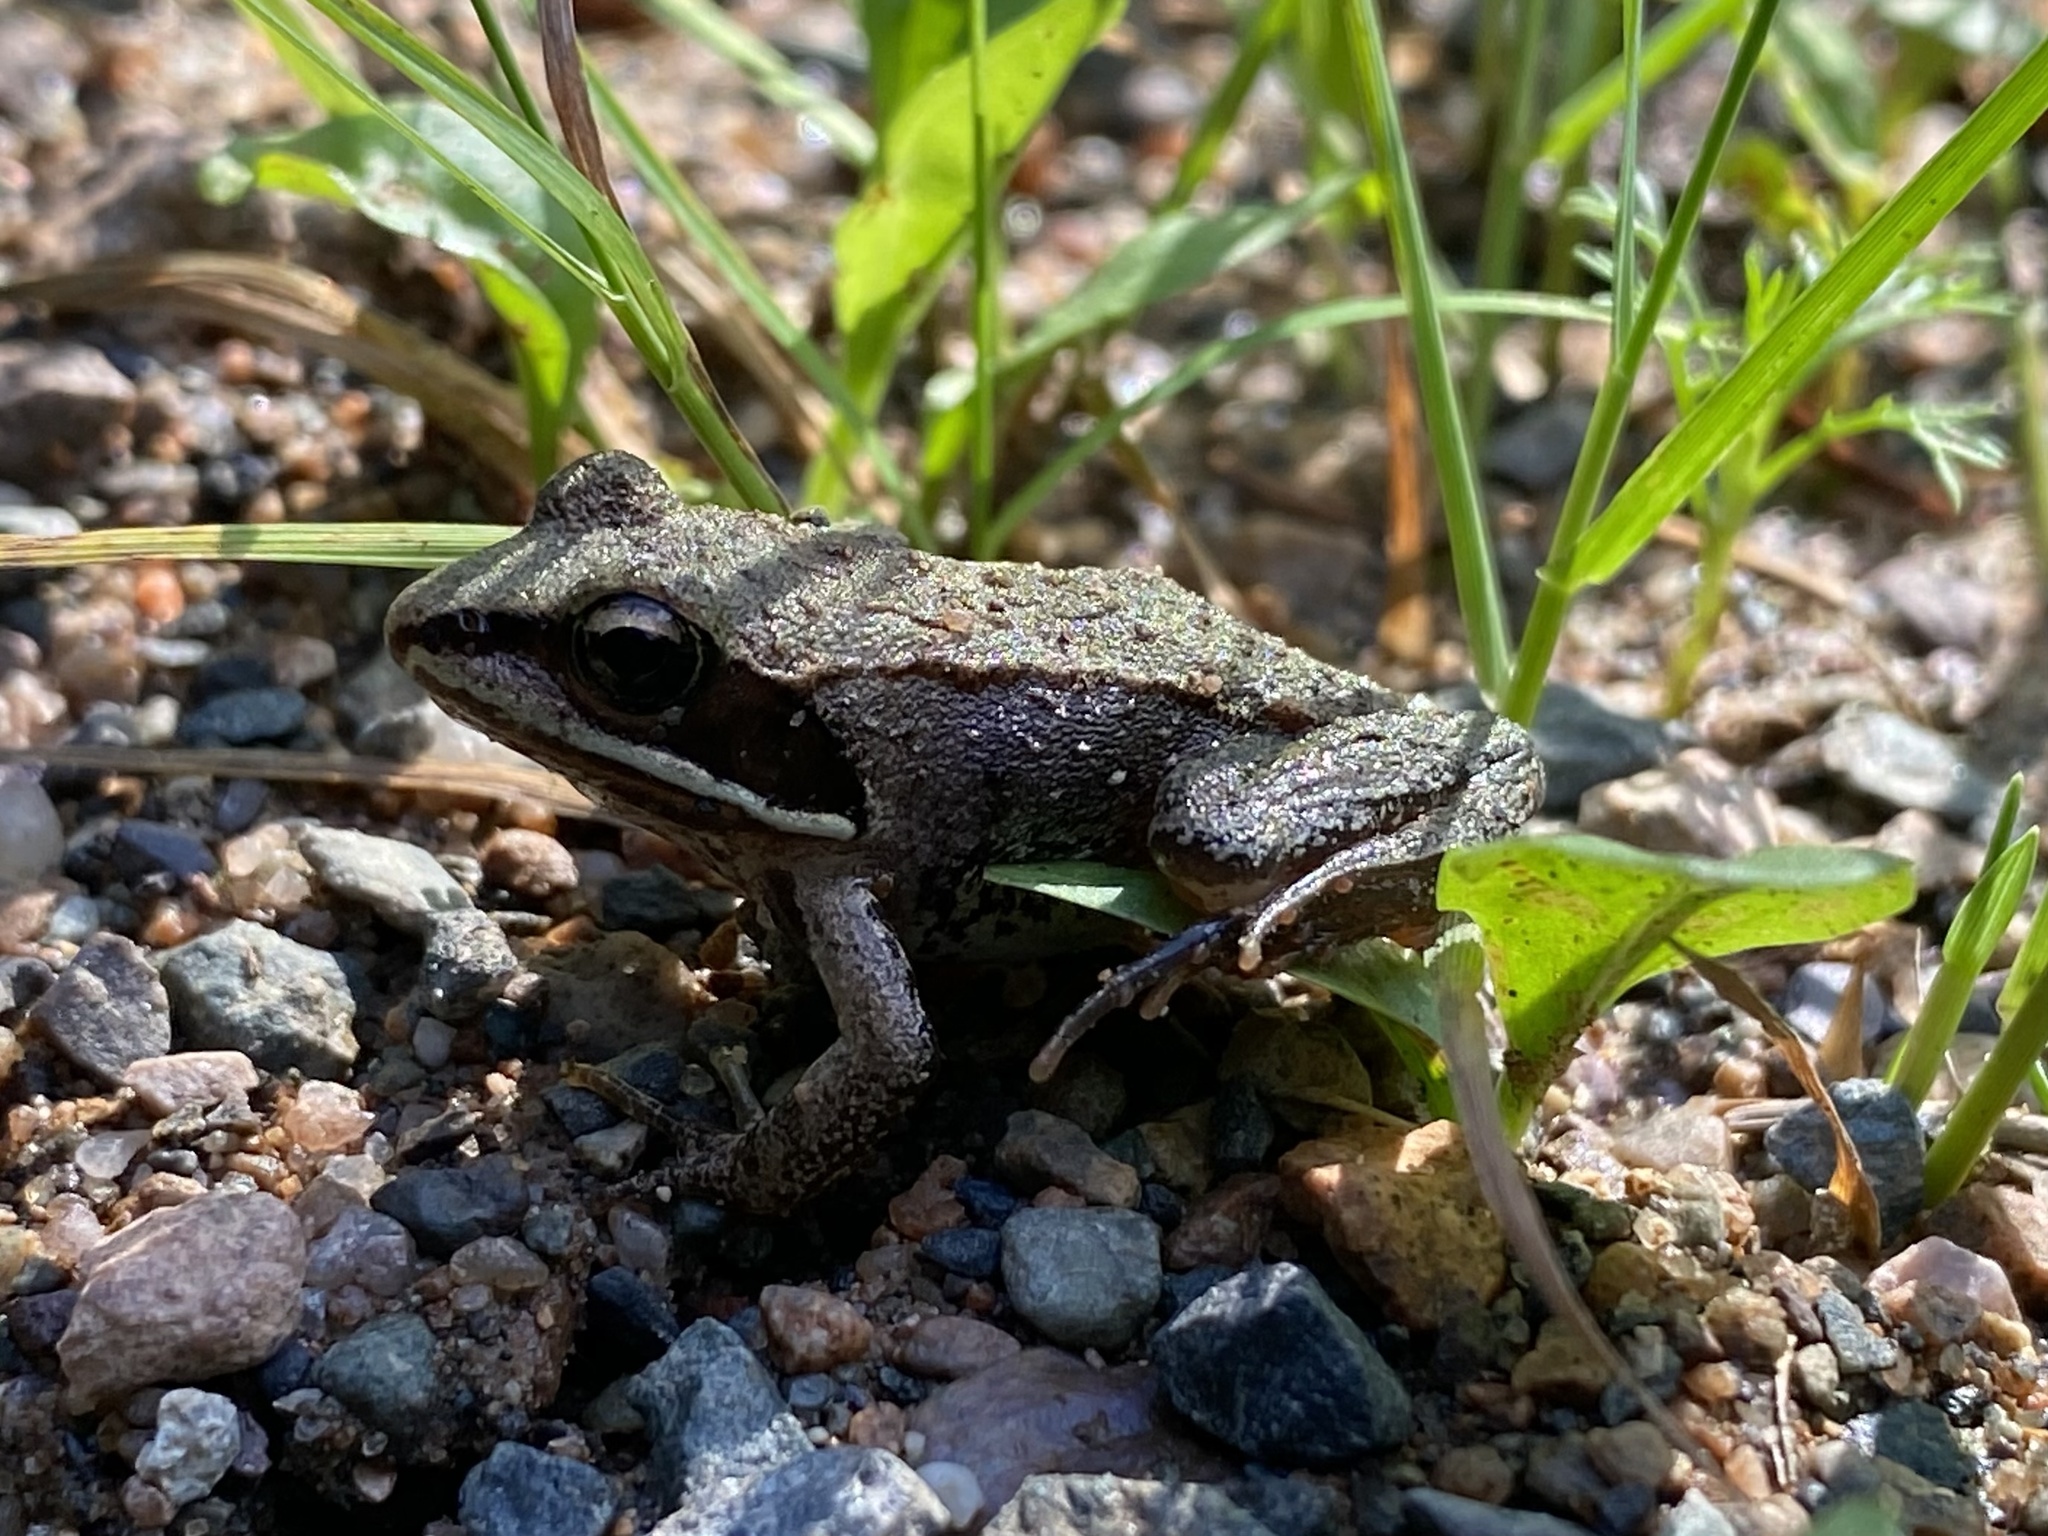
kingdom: Animalia
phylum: Chordata
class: Amphibia
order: Anura
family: Ranidae
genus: Lithobates
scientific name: Lithobates sylvaticus
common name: Wood frog
